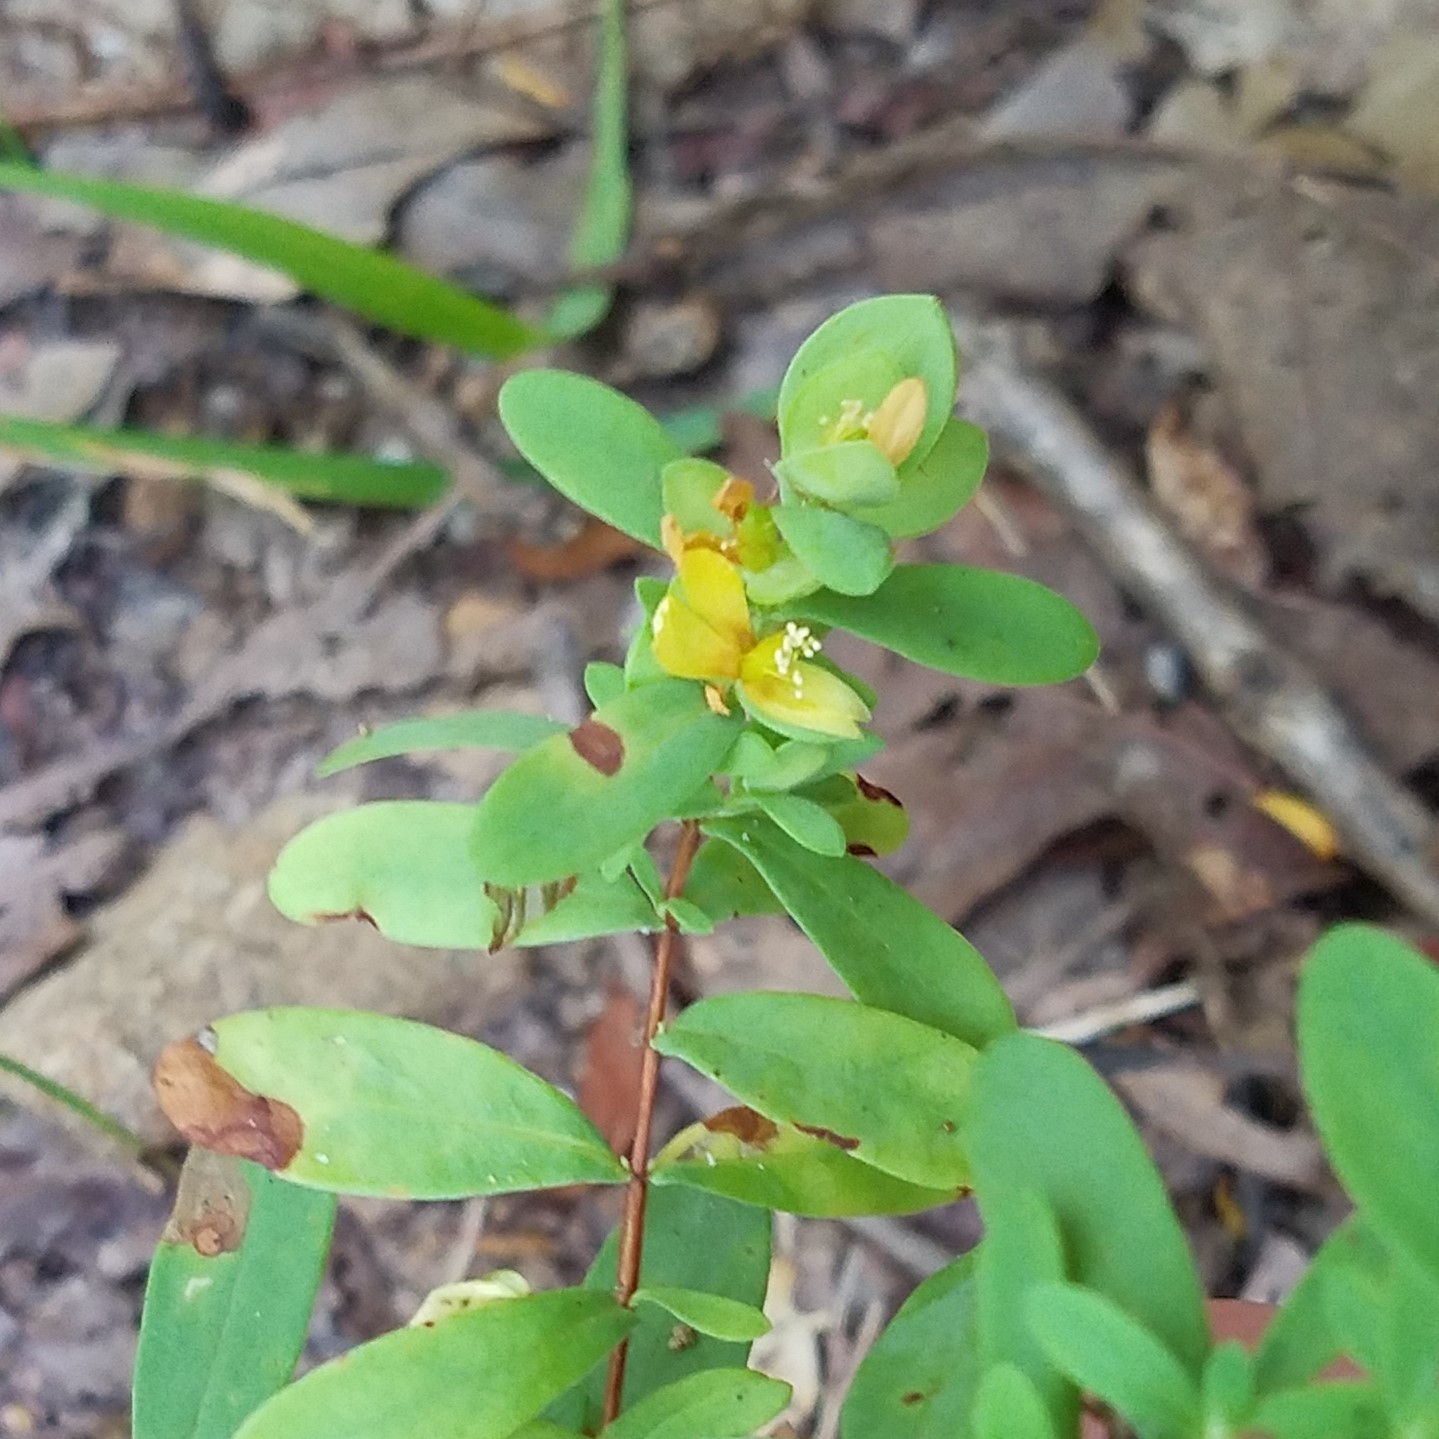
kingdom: Plantae
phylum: Tracheophyta
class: Magnoliopsida
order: Malpighiales
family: Hypericaceae
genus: Hypericum
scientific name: Hypericum hypericoides
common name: St. andrew's cross
